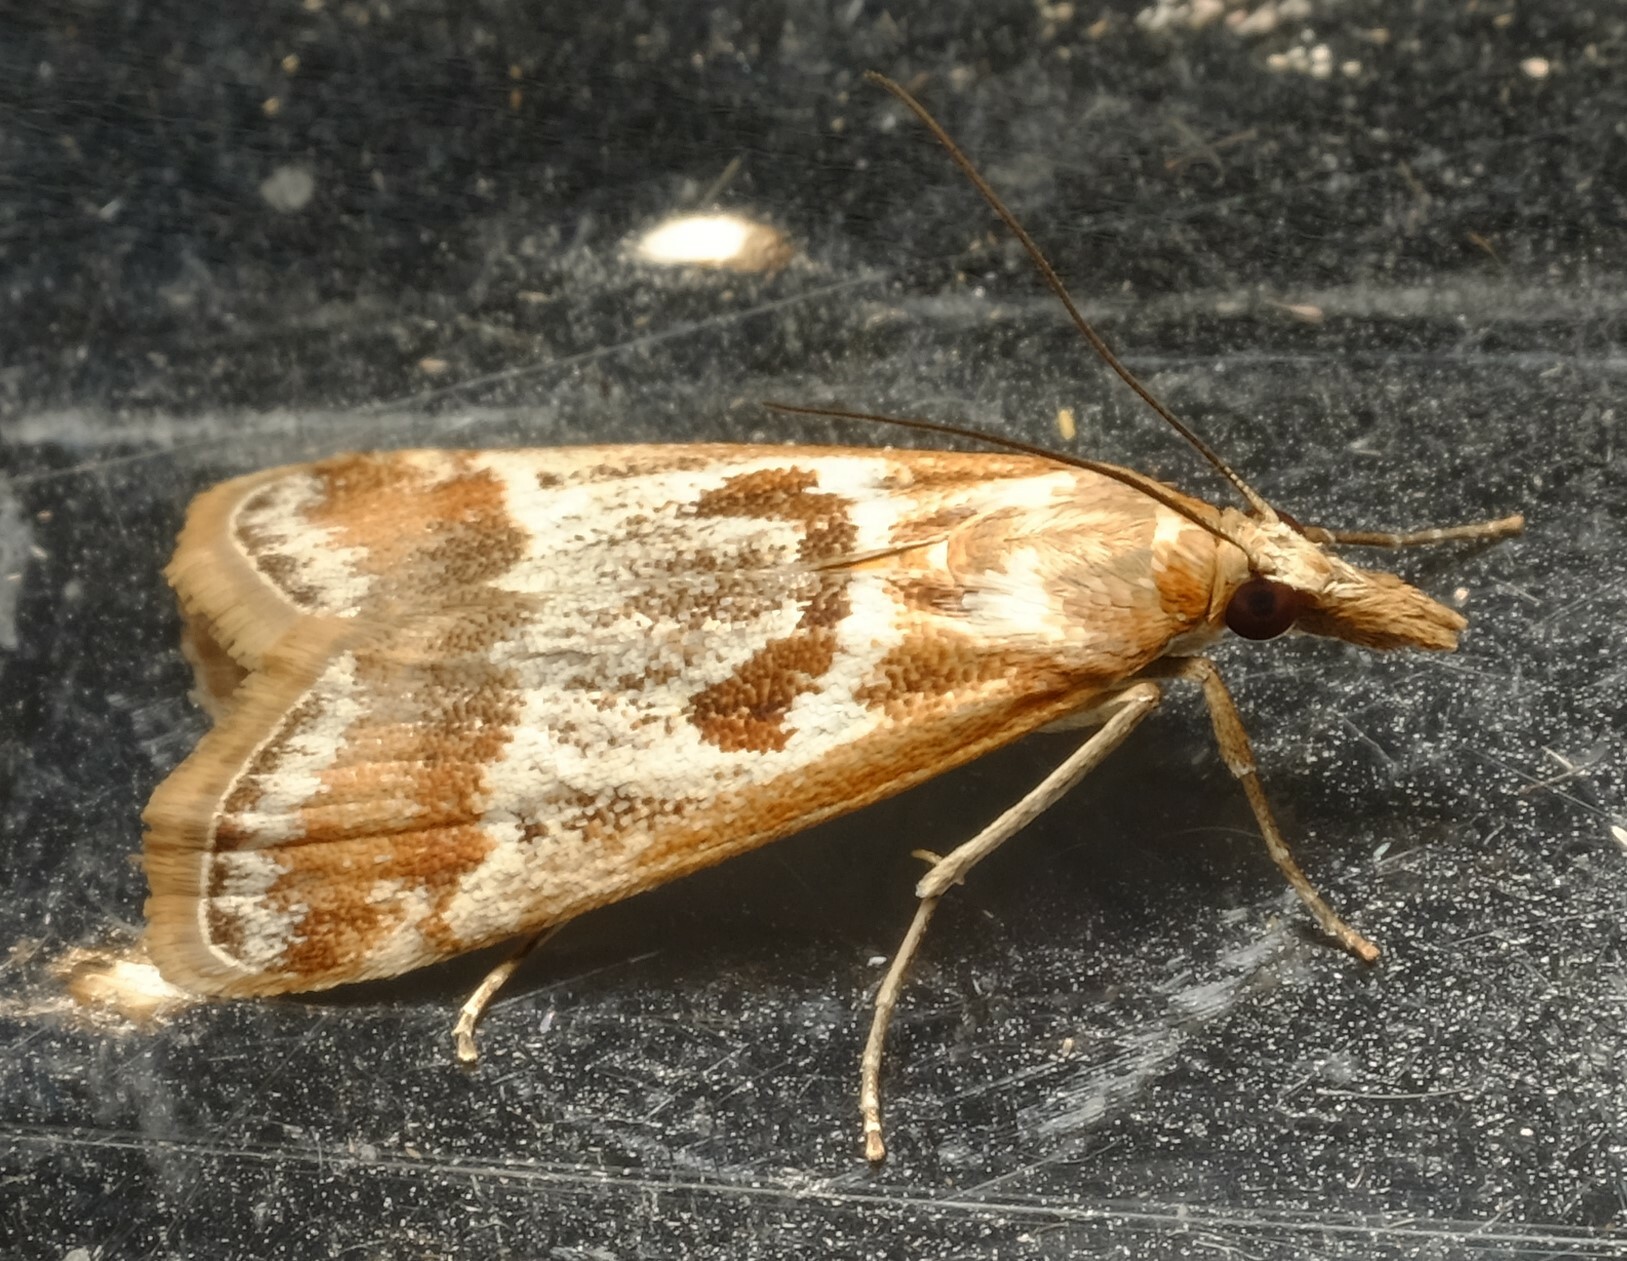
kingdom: Animalia
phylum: Arthropoda
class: Insecta
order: Lepidoptera
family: Crambidae
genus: Syntonarcha
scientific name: Syntonarcha iriastis
